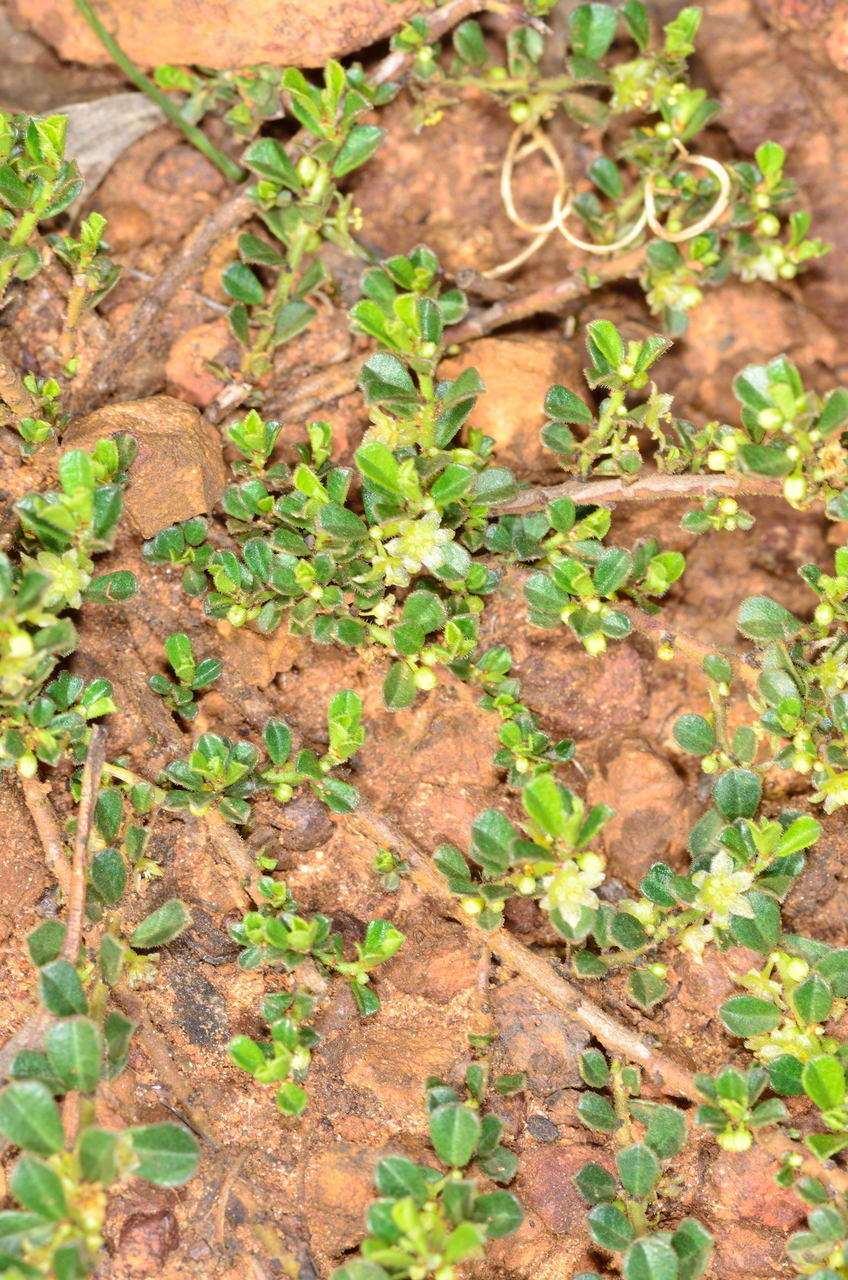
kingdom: Plantae
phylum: Tracheophyta
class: Magnoliopsida
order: Malpighiales
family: Phyllanthaceae
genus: Phyllanthus
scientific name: Phyllanthus hirtellus
